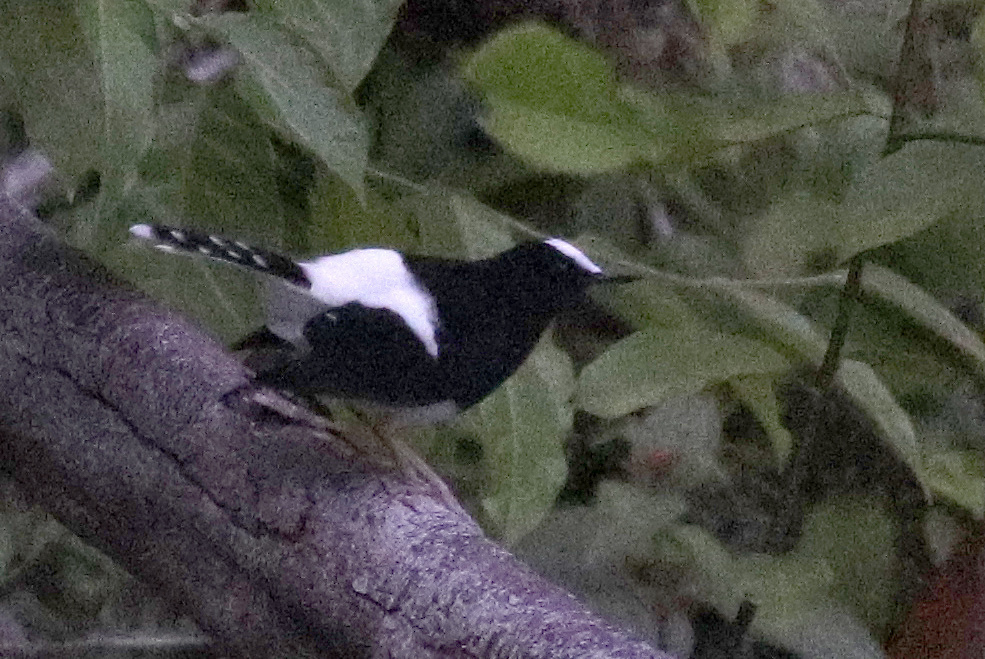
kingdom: Animalia
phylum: Chordata
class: Aves
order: Passeriformes
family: Muscicapidae
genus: Enicurus
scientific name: Enicurus leschenaulti
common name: White-crowned forktail
